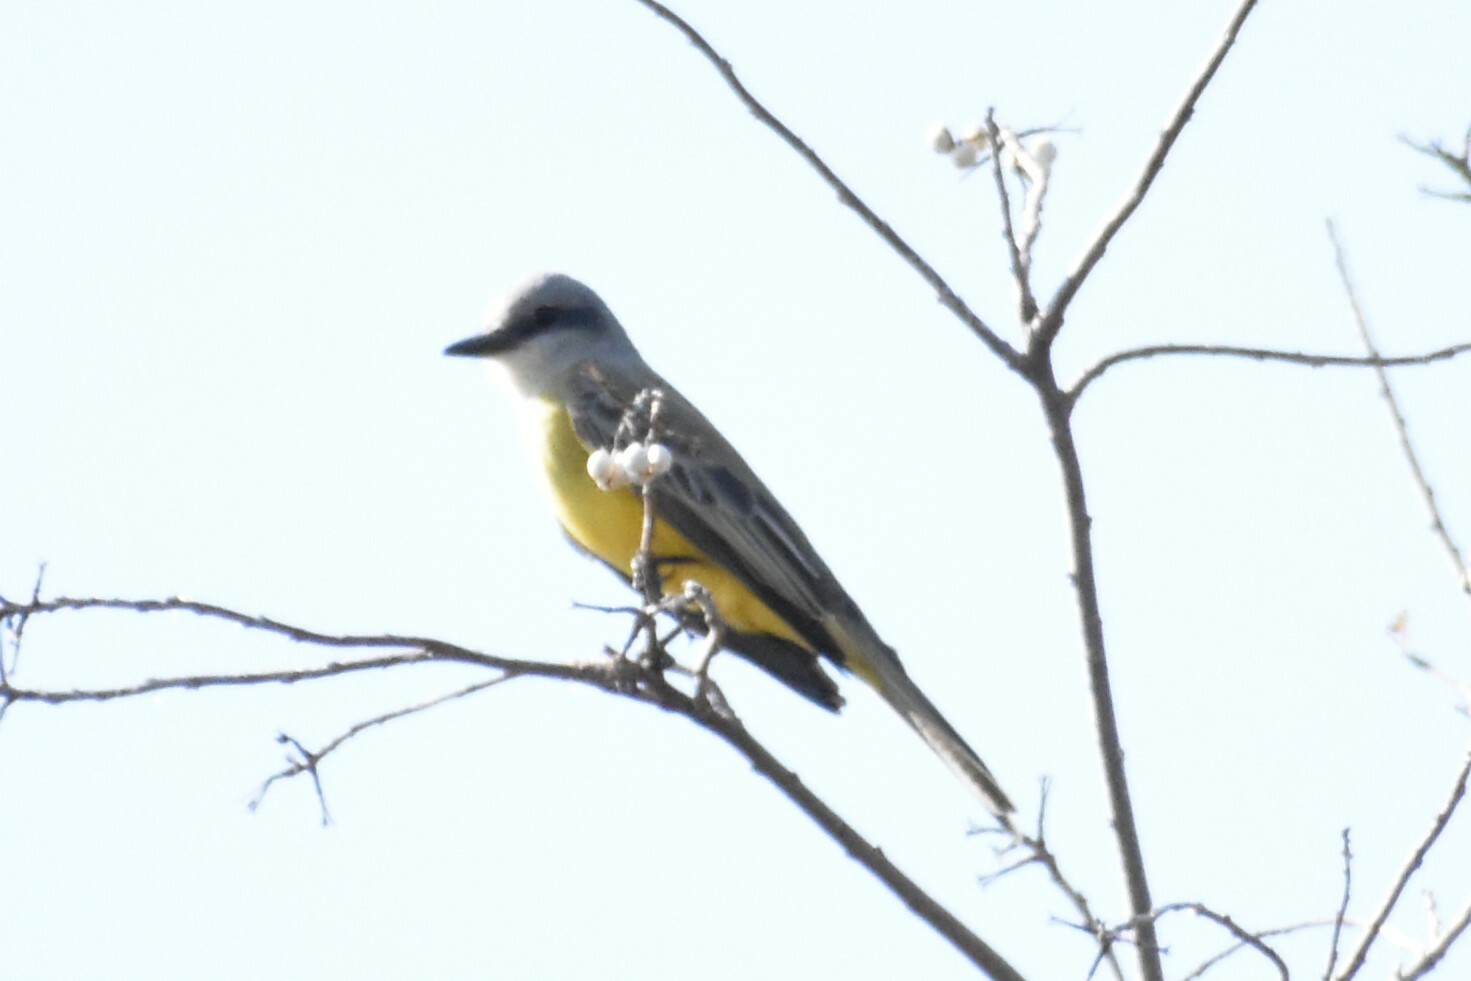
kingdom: Animalia
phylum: Chordata
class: Aves
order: Passeriformes
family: Tyrannidae
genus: Tyrannus
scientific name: Tyrannus melancholicus
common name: Tropical kingbird
